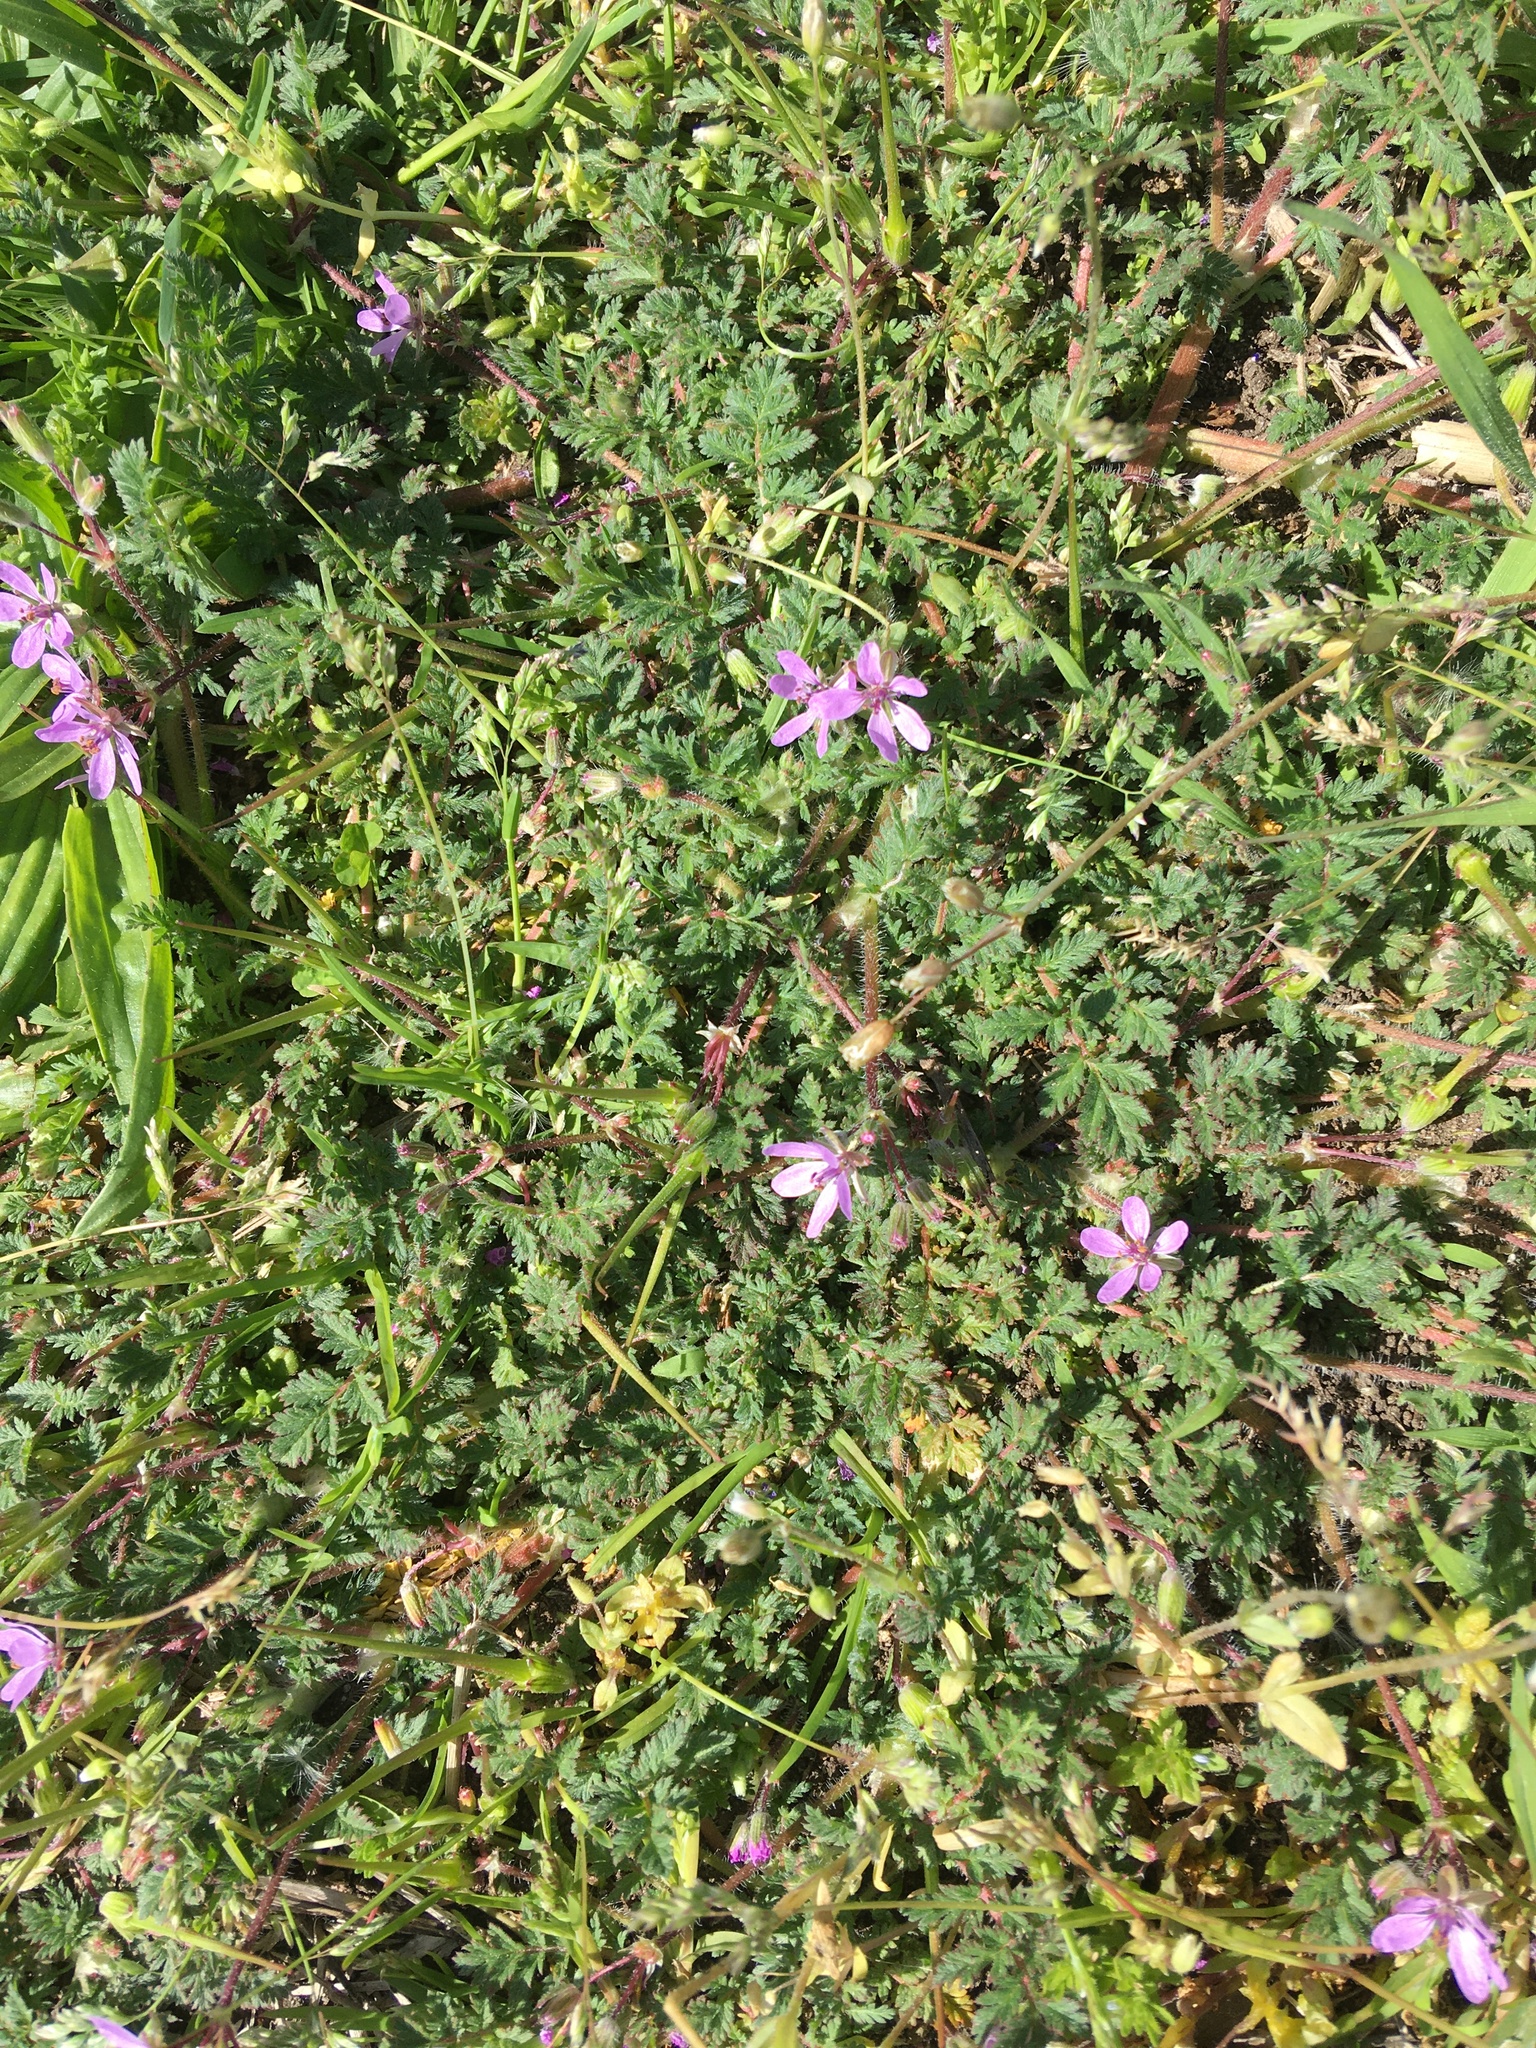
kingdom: Plantae
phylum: Tracheophyta
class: Magnoliopsida
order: Geraniales
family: Geraniaceae
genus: Erodium
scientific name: Erodium cicutarium
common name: Common stork's-bill
